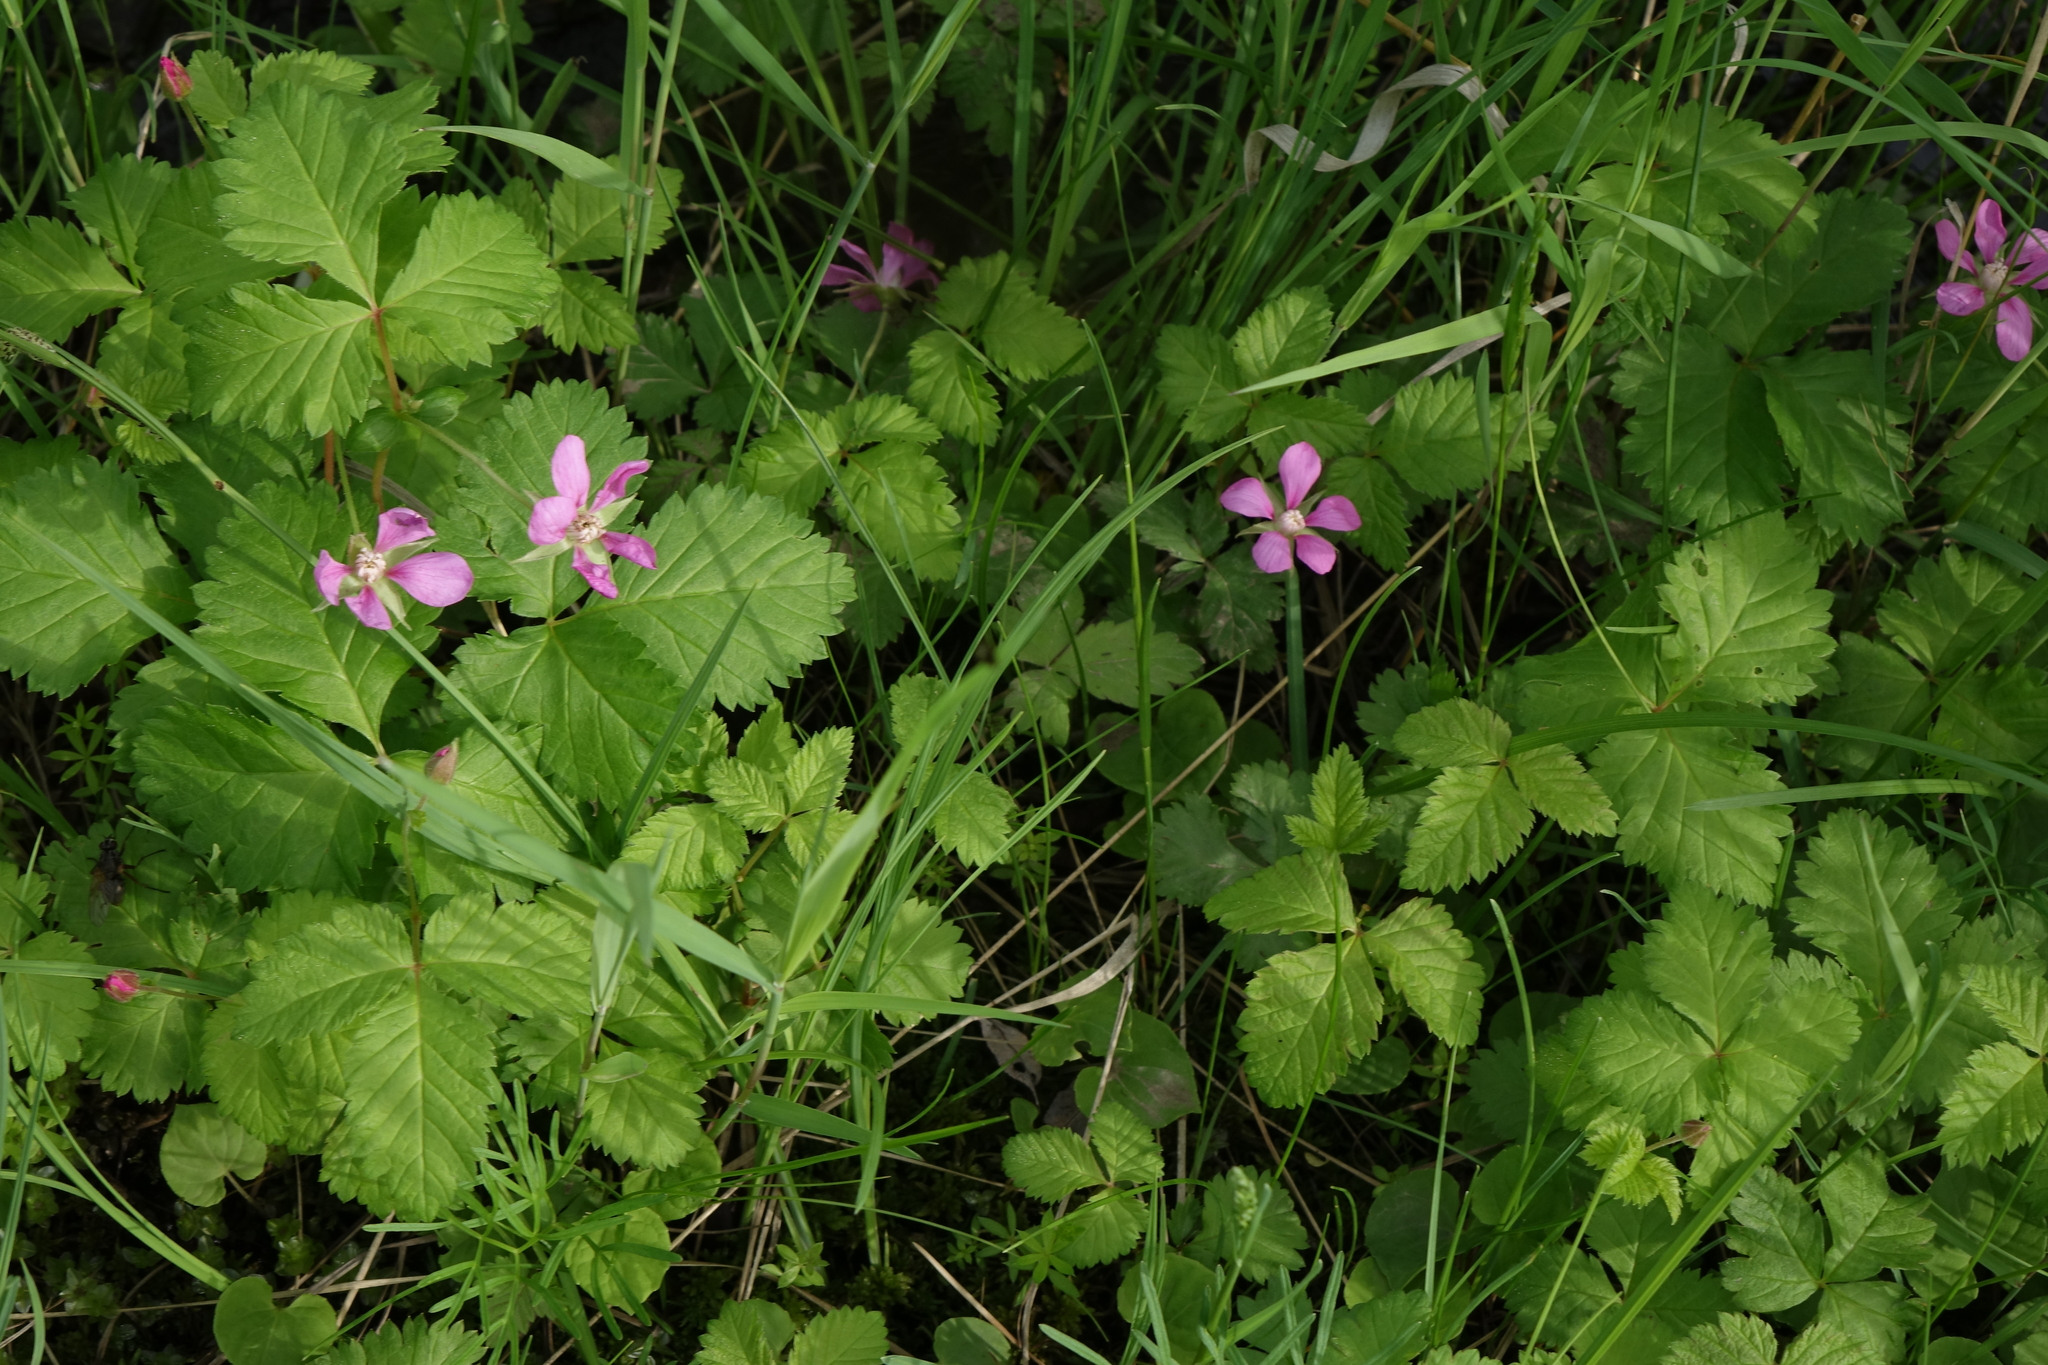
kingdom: Plantae
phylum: Tracheophyta
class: Magnoliopsida
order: Rosales
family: Rosaceae
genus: Rubus
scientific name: Rubus arcticus
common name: Arctic bramble
